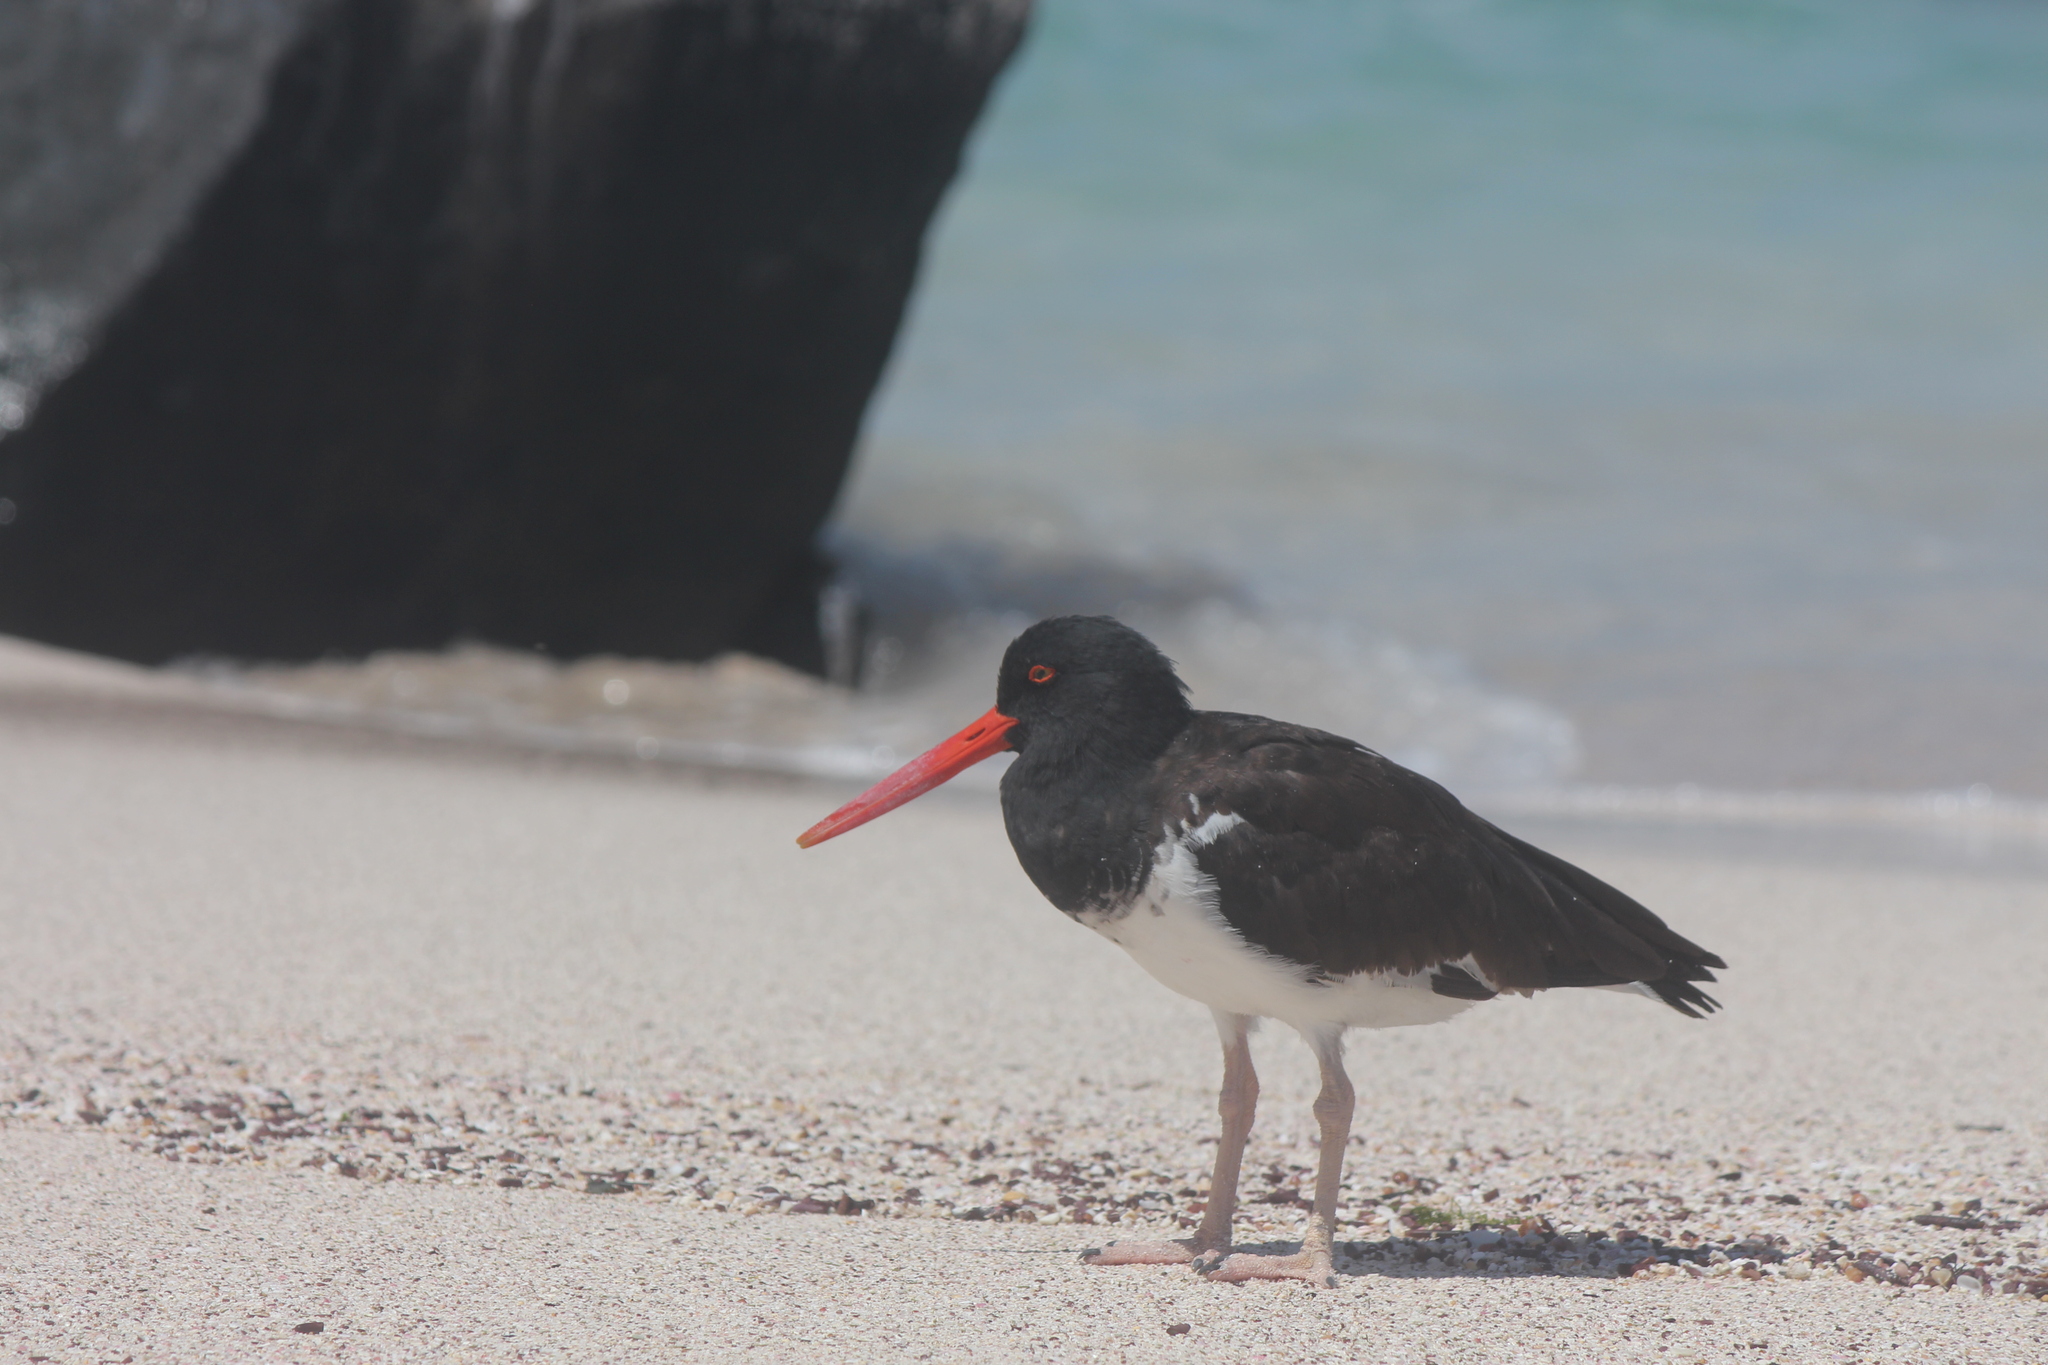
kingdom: Animalia
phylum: Chordata
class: Aves
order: Charadriiformes
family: Haematopodidae
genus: Haematopus
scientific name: Haematopus palliatus
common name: American oystercatcher
